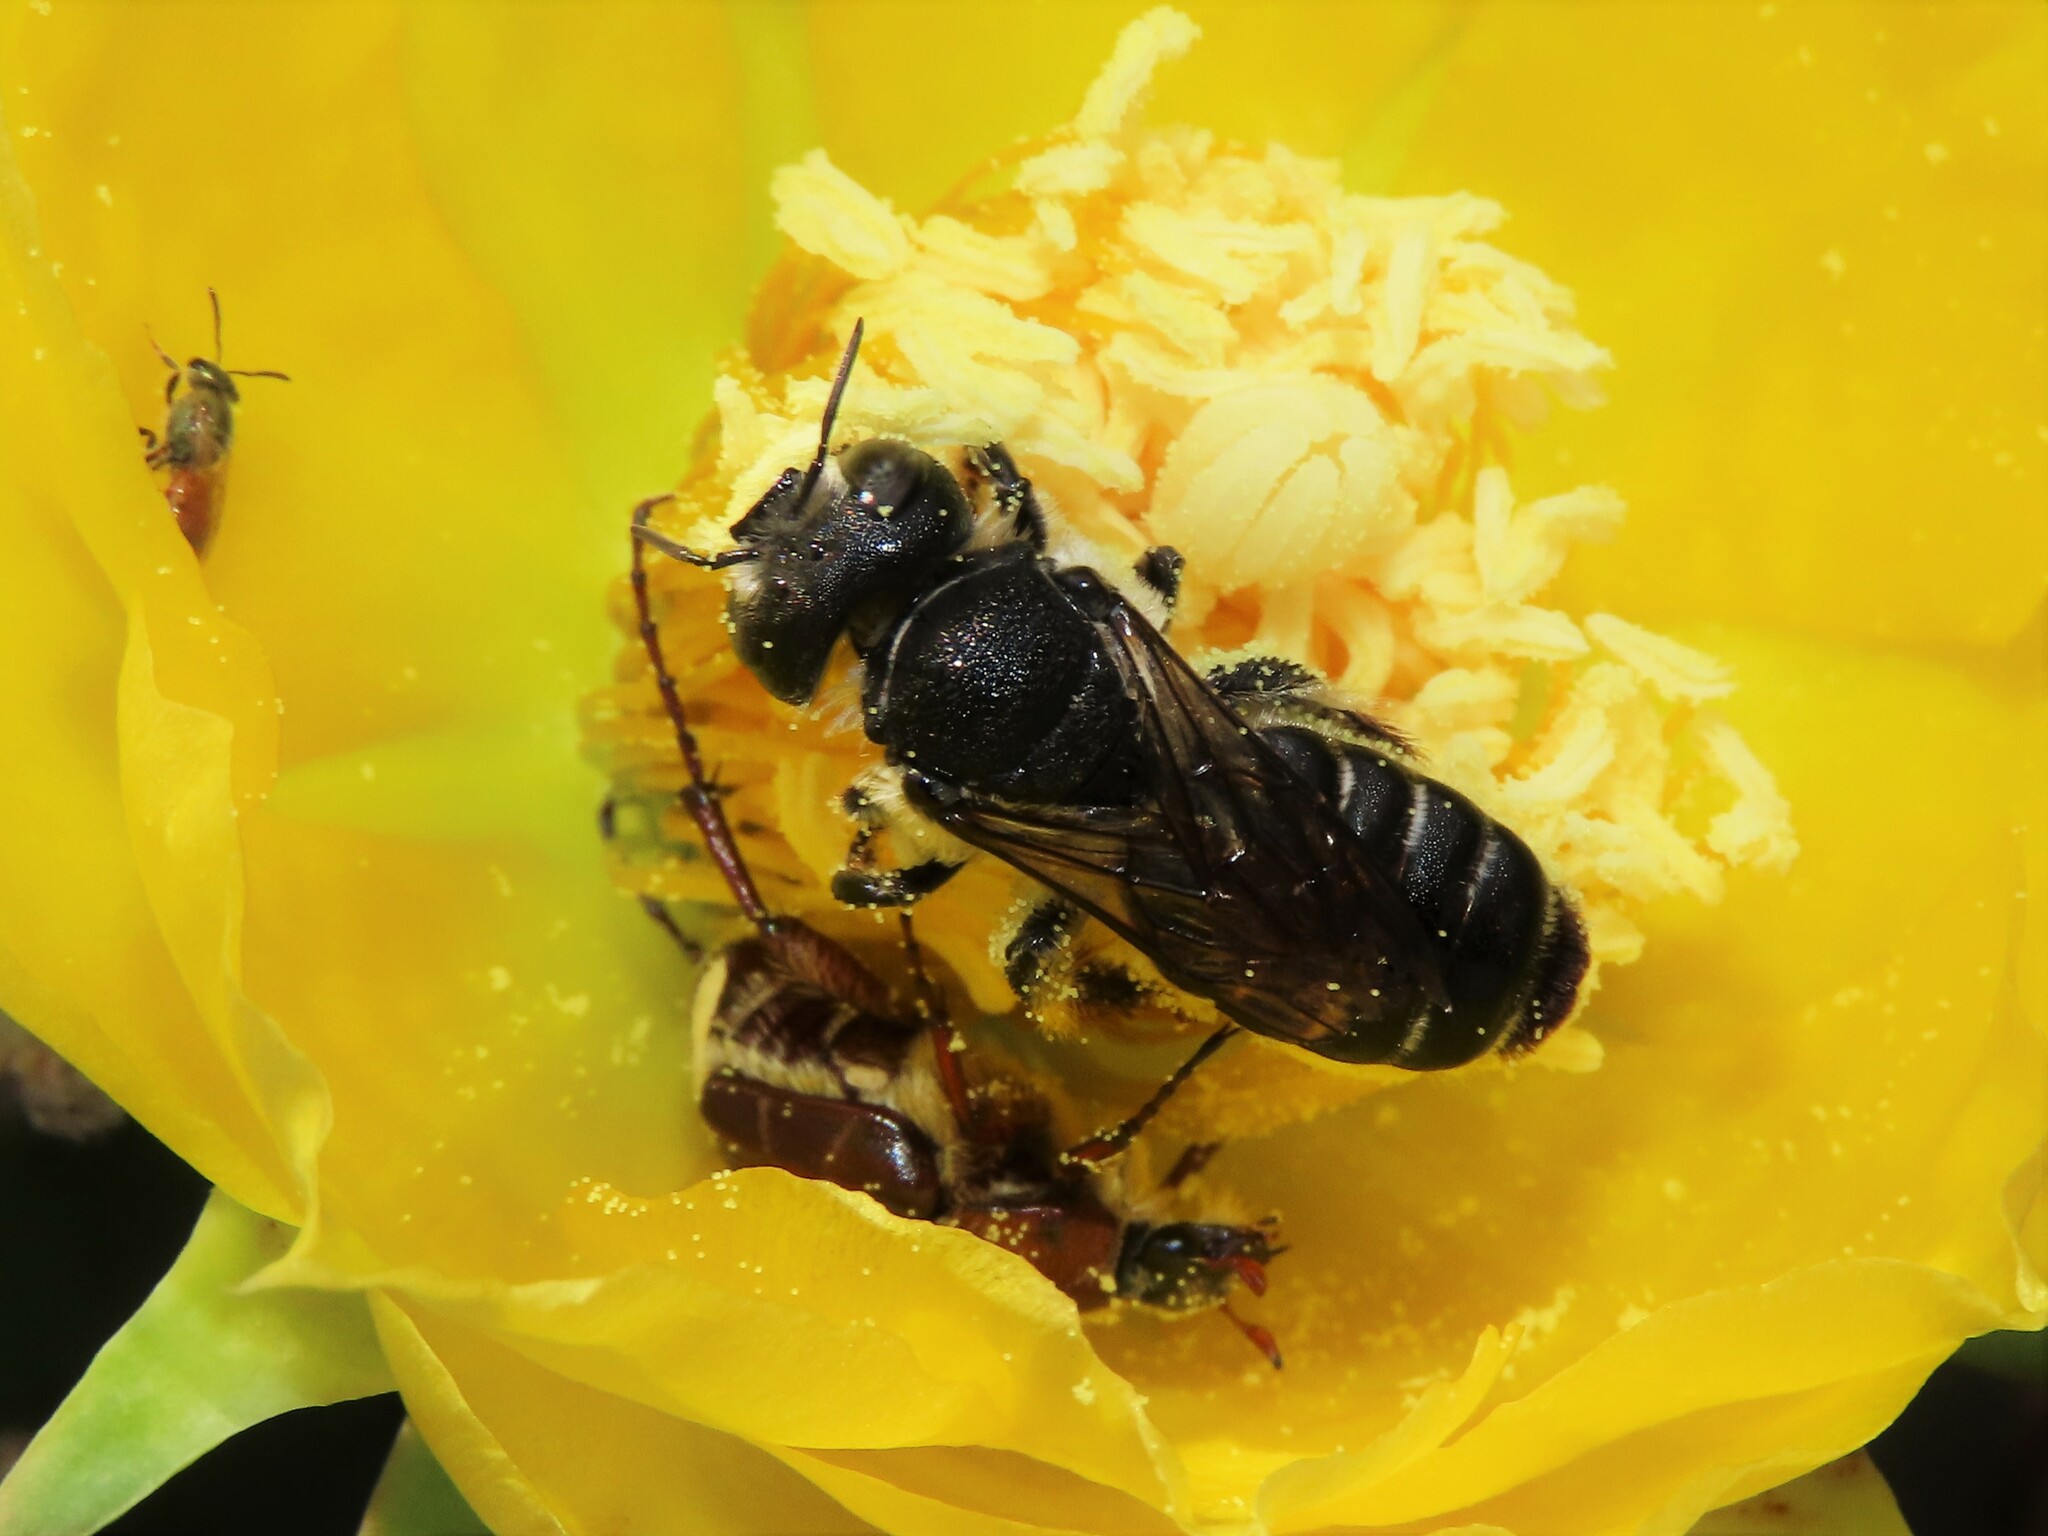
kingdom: Animalia
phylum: Arthropoda
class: Insecta
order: Hymenoptera
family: Megachilidae
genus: Lithurgopsis
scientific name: Lithurgopsis gibbosa
